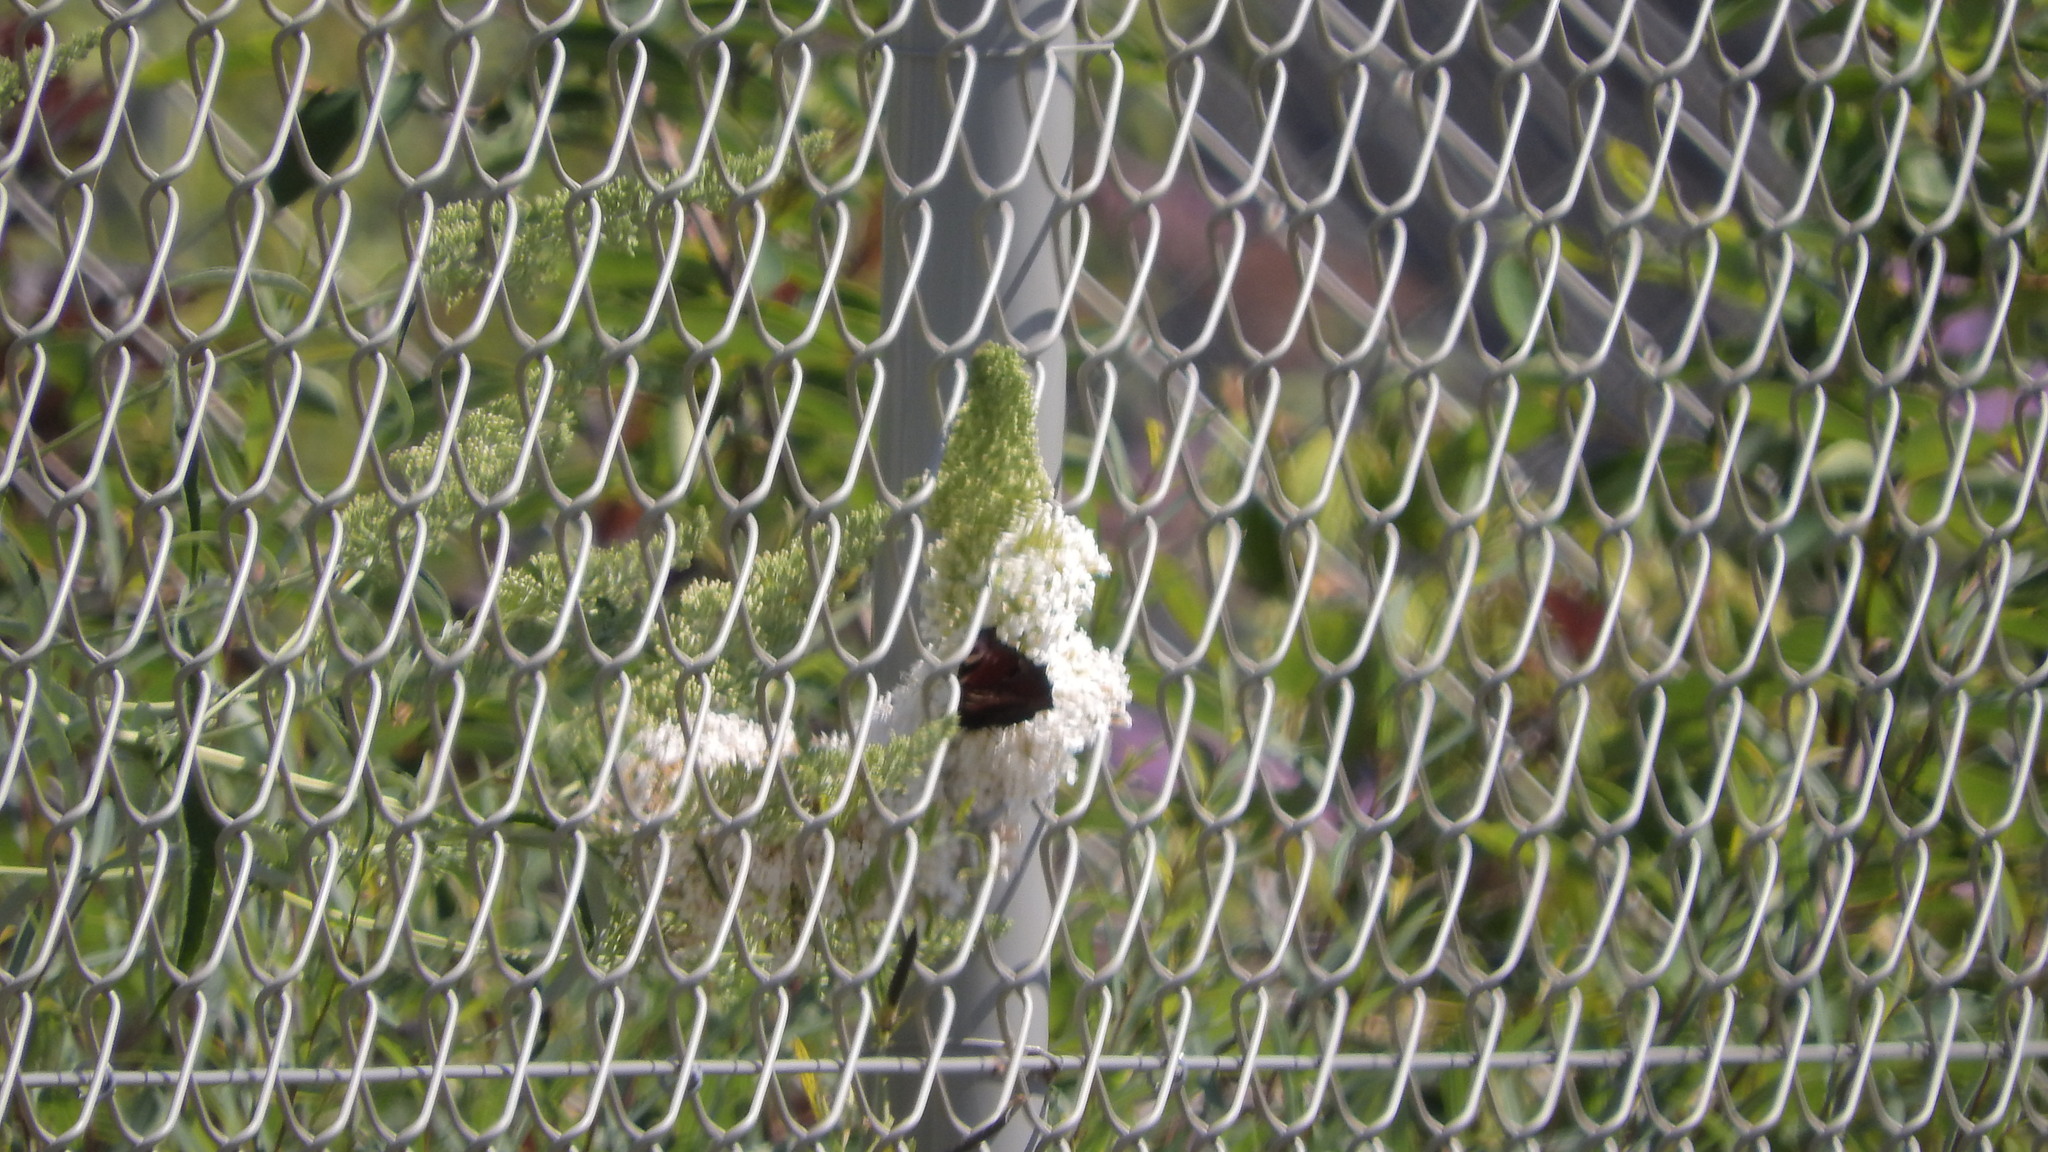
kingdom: Animalia
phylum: Arthropoda
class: Insecta
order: Lepidoptera
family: Nymphalidae
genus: Aglais
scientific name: Aglais io
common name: Peacock
